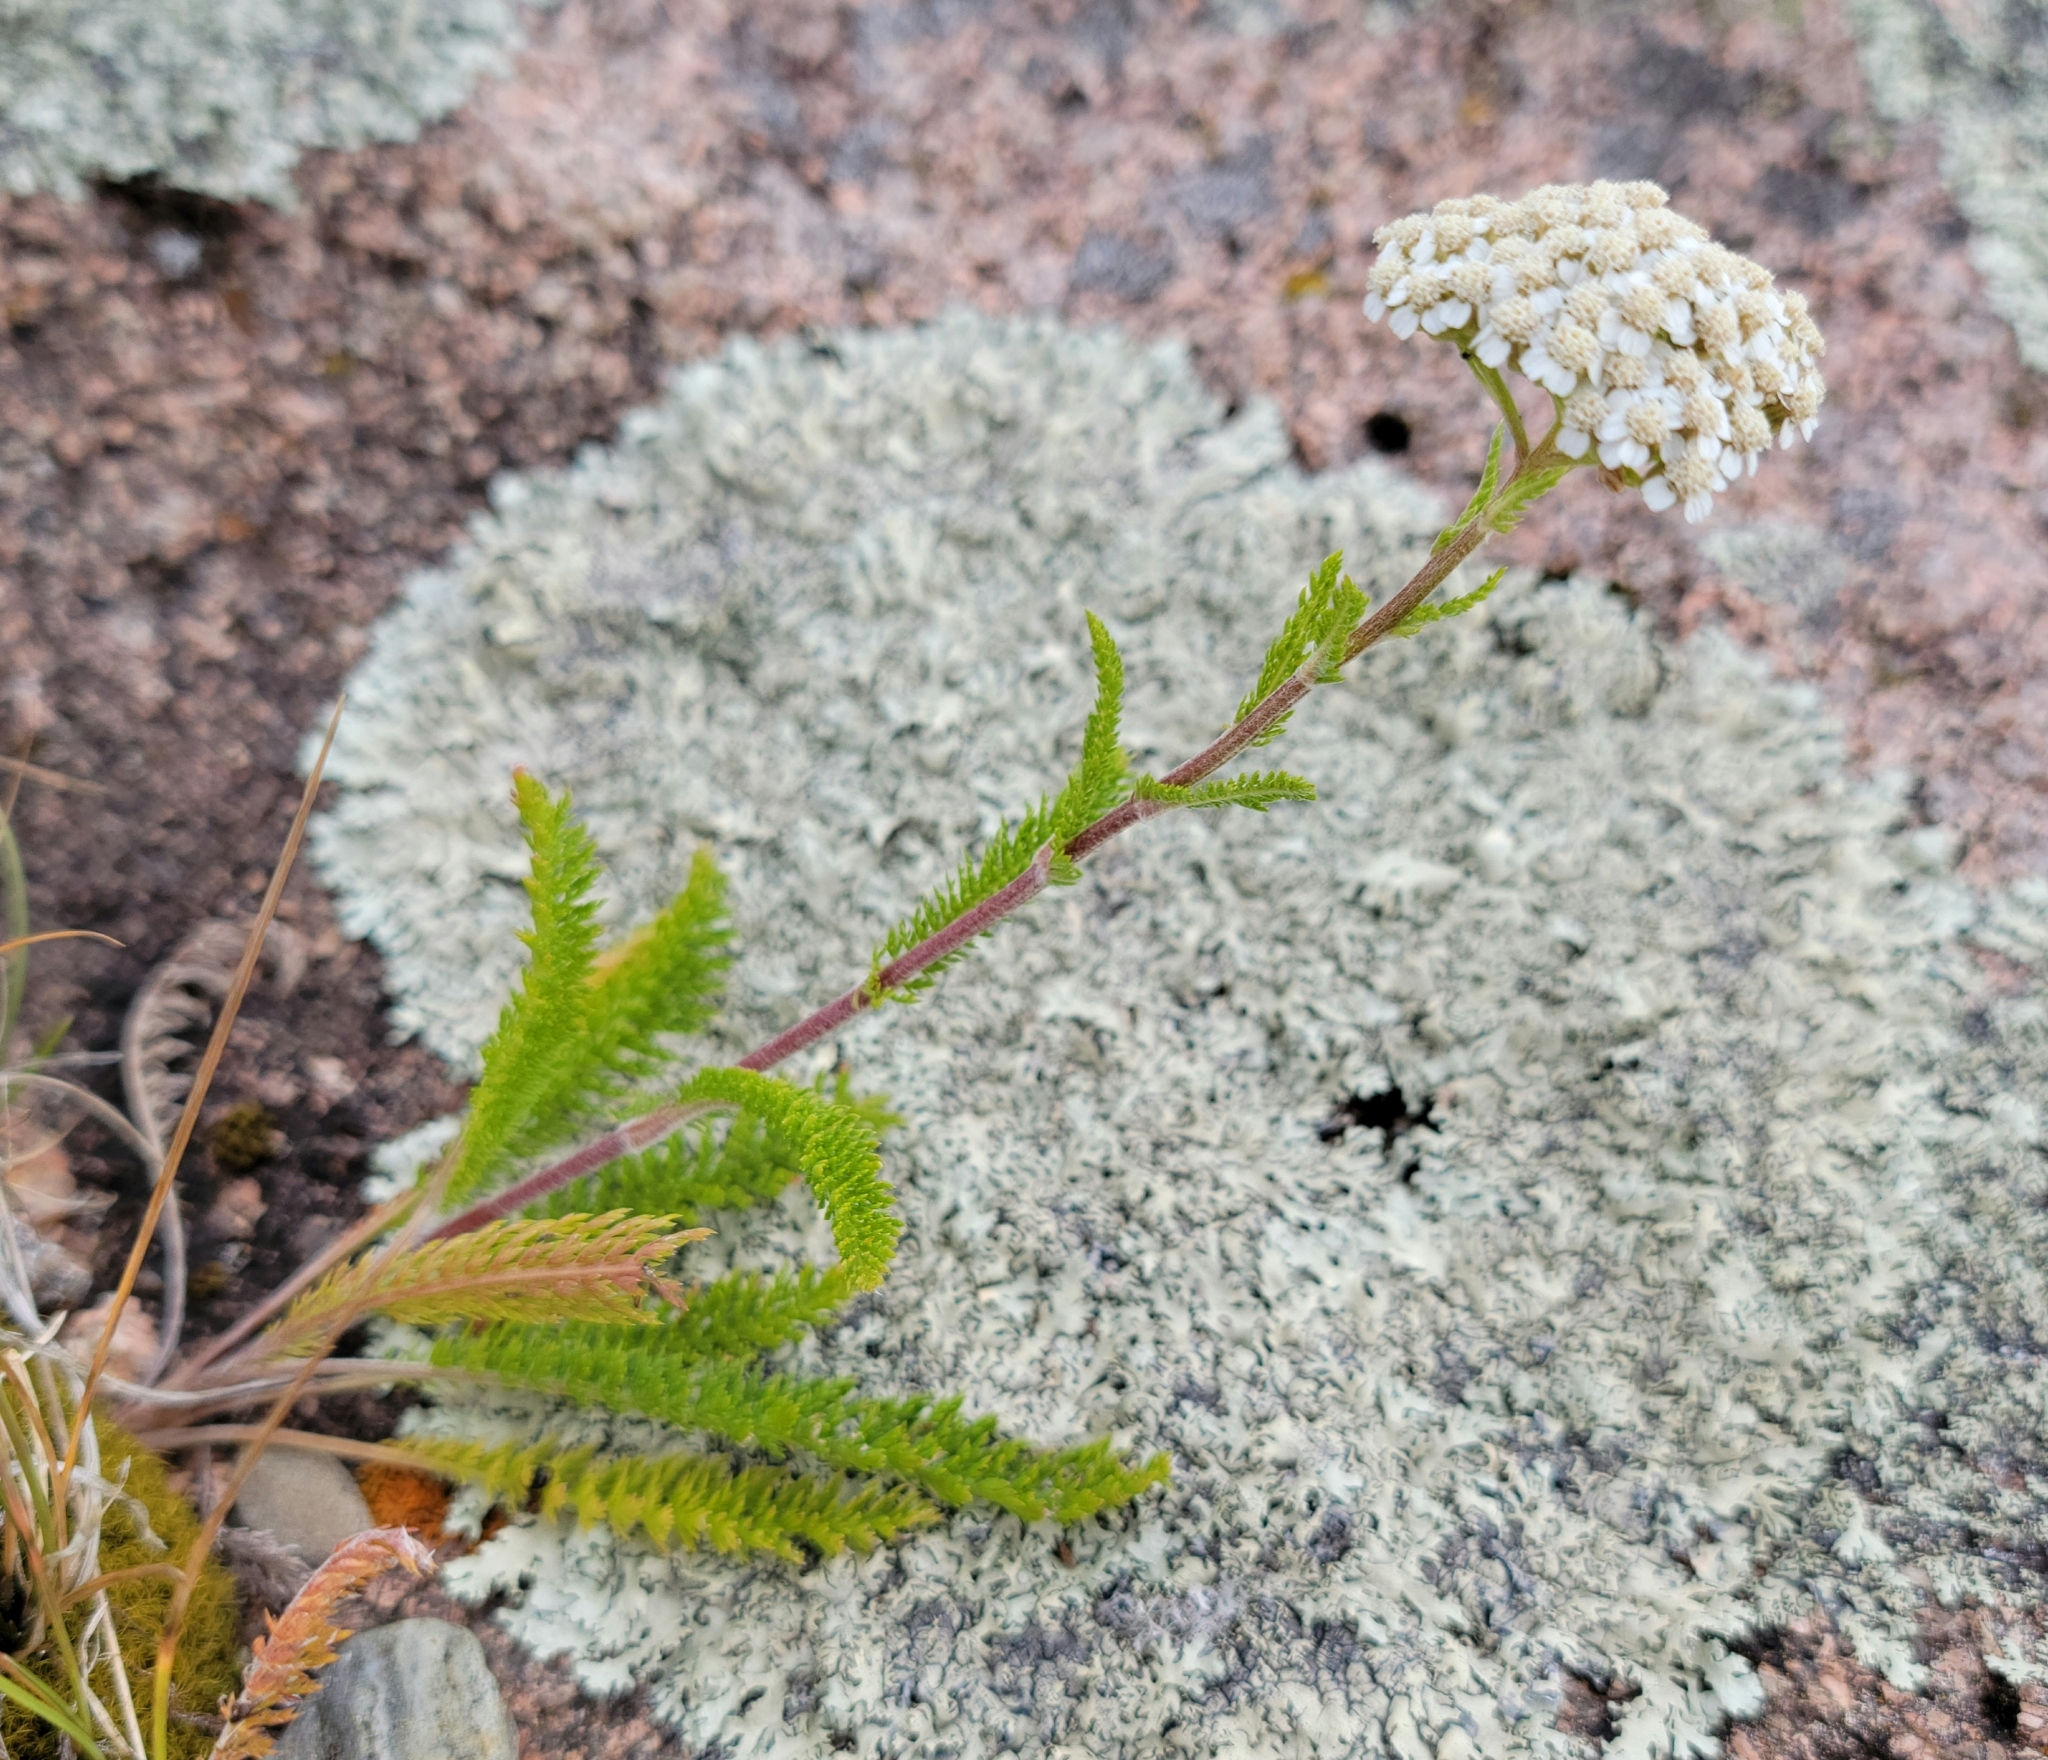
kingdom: Plantae
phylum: Tracheophyta
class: Magnoliopsida
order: Asterales
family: Asteraceae
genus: Achillea
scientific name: Achillea millefolium
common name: Yarrow
